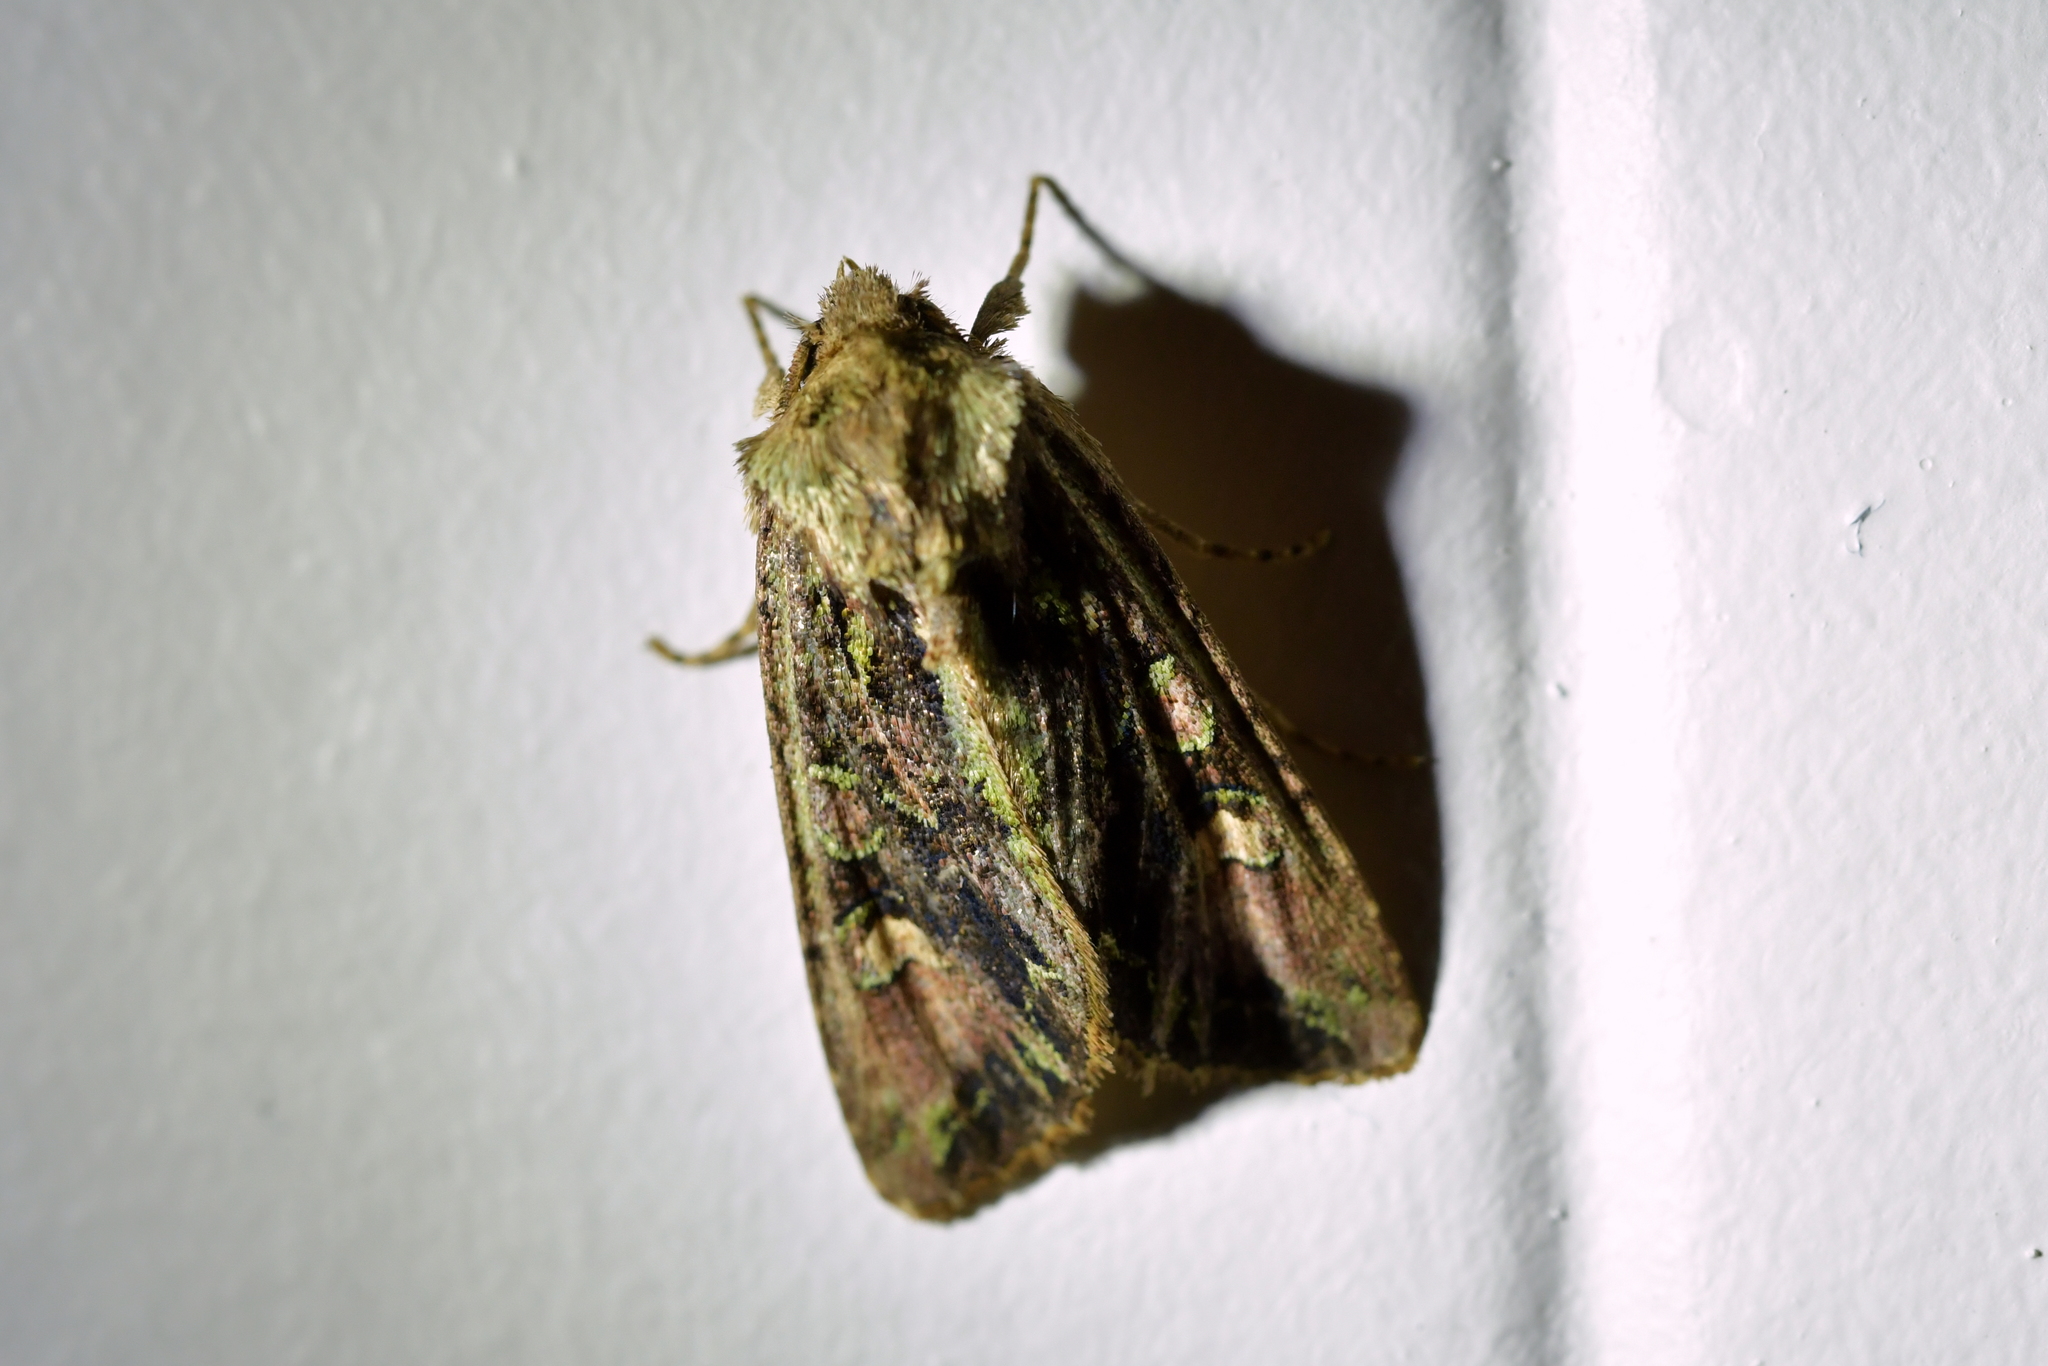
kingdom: Animalia
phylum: Arthropoda
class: Insecta
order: Lepidoptera
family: Noctuidae
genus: Ichneutica
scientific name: Ichneutica insignis
